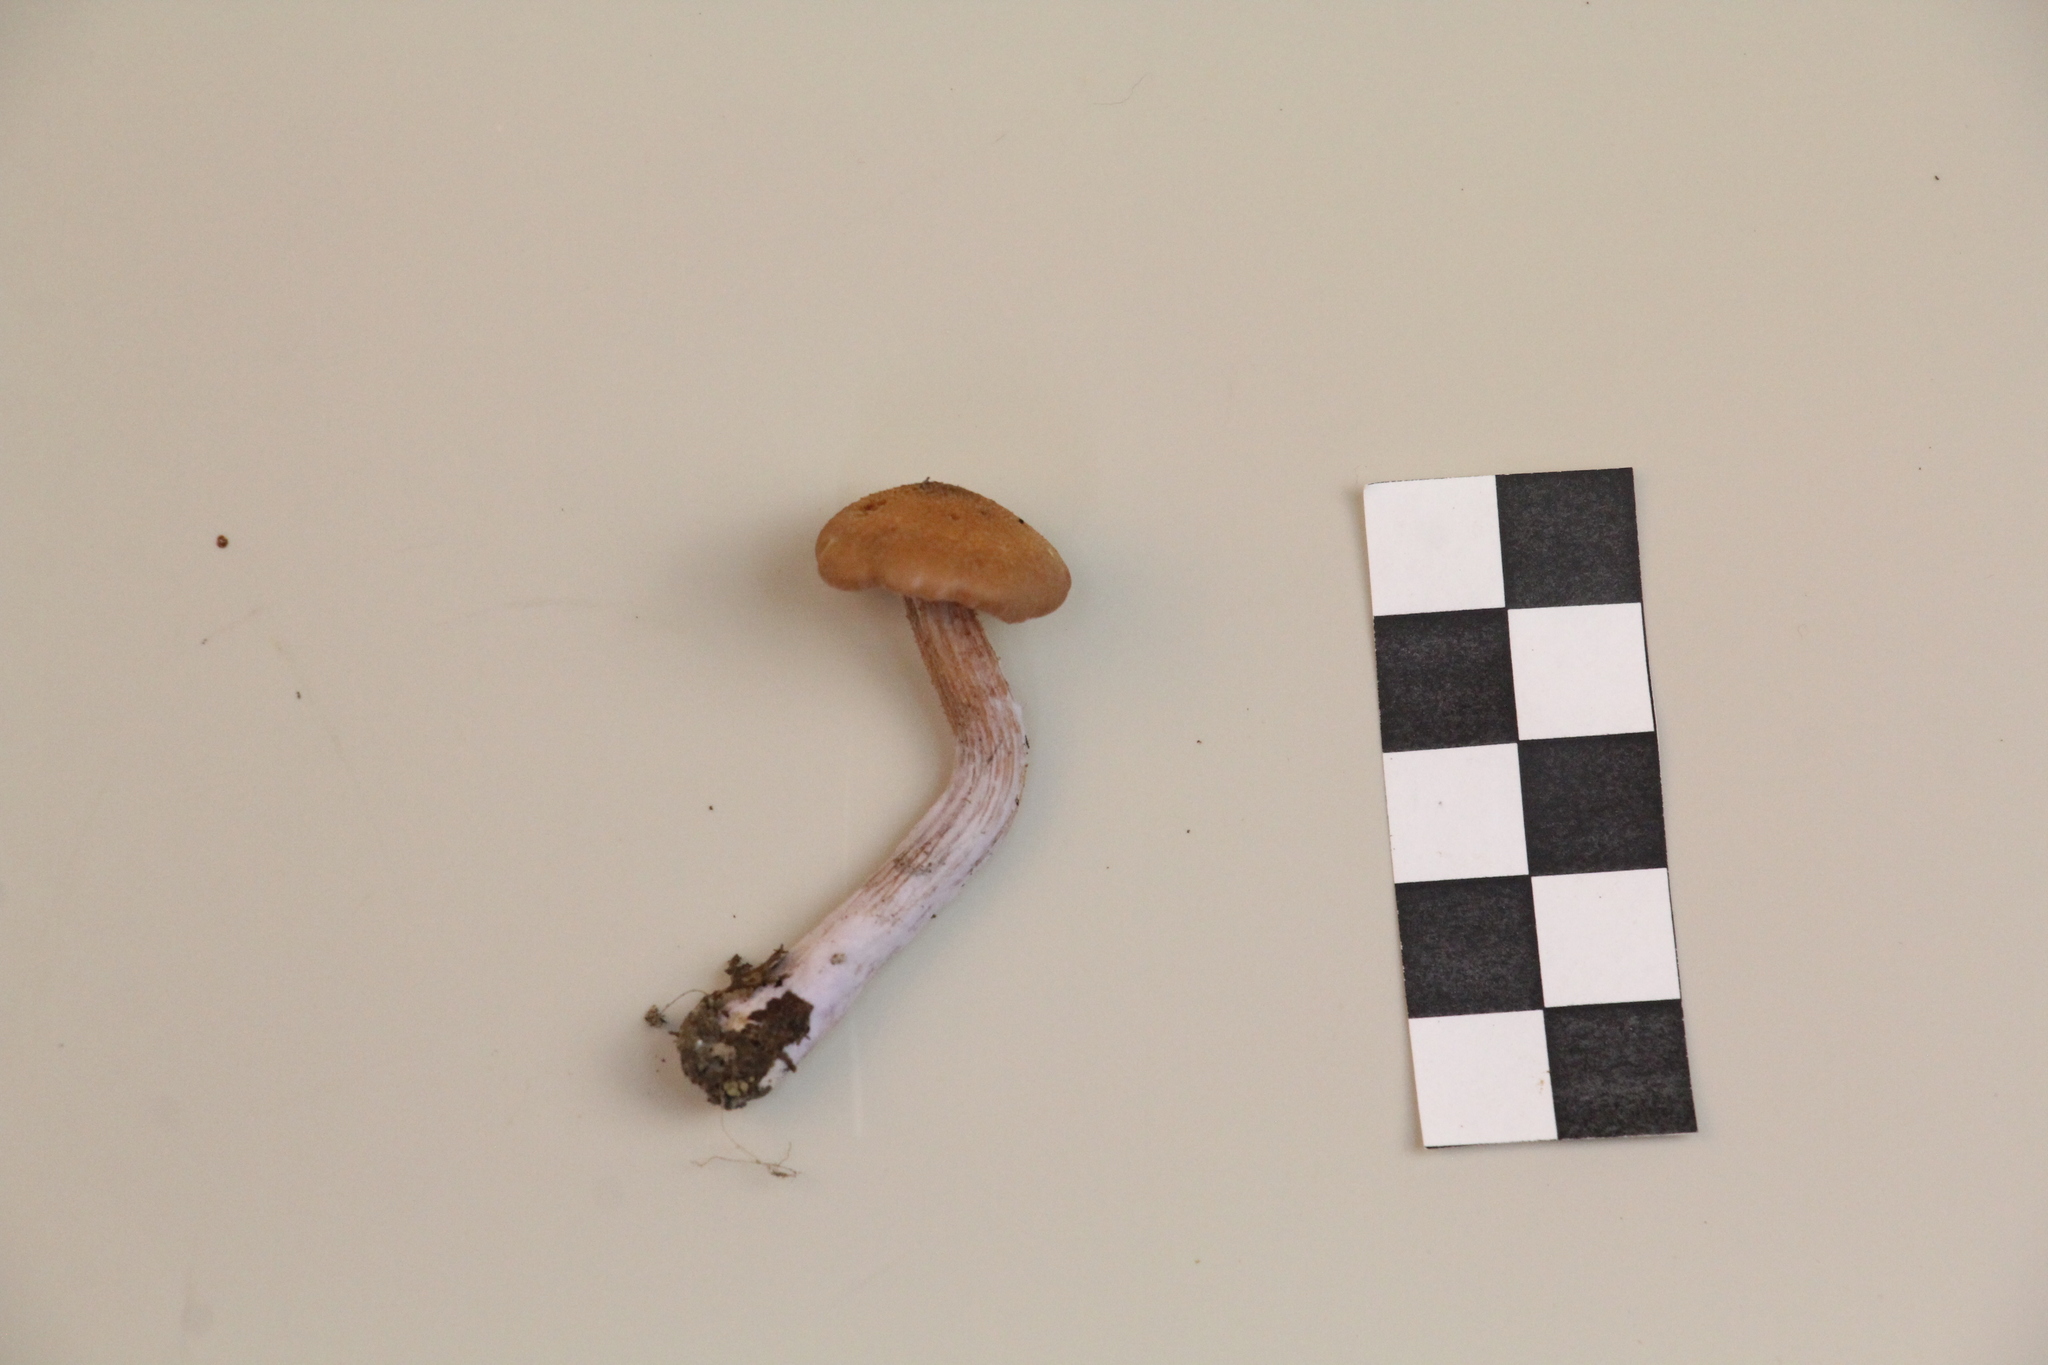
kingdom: Fungi
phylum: Basidiomycota
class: Agaricomycetes
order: Agaricales
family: Hydnangiaceae
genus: Laccaria
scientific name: Laccaria bicolor
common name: Bicoloured deceiver
